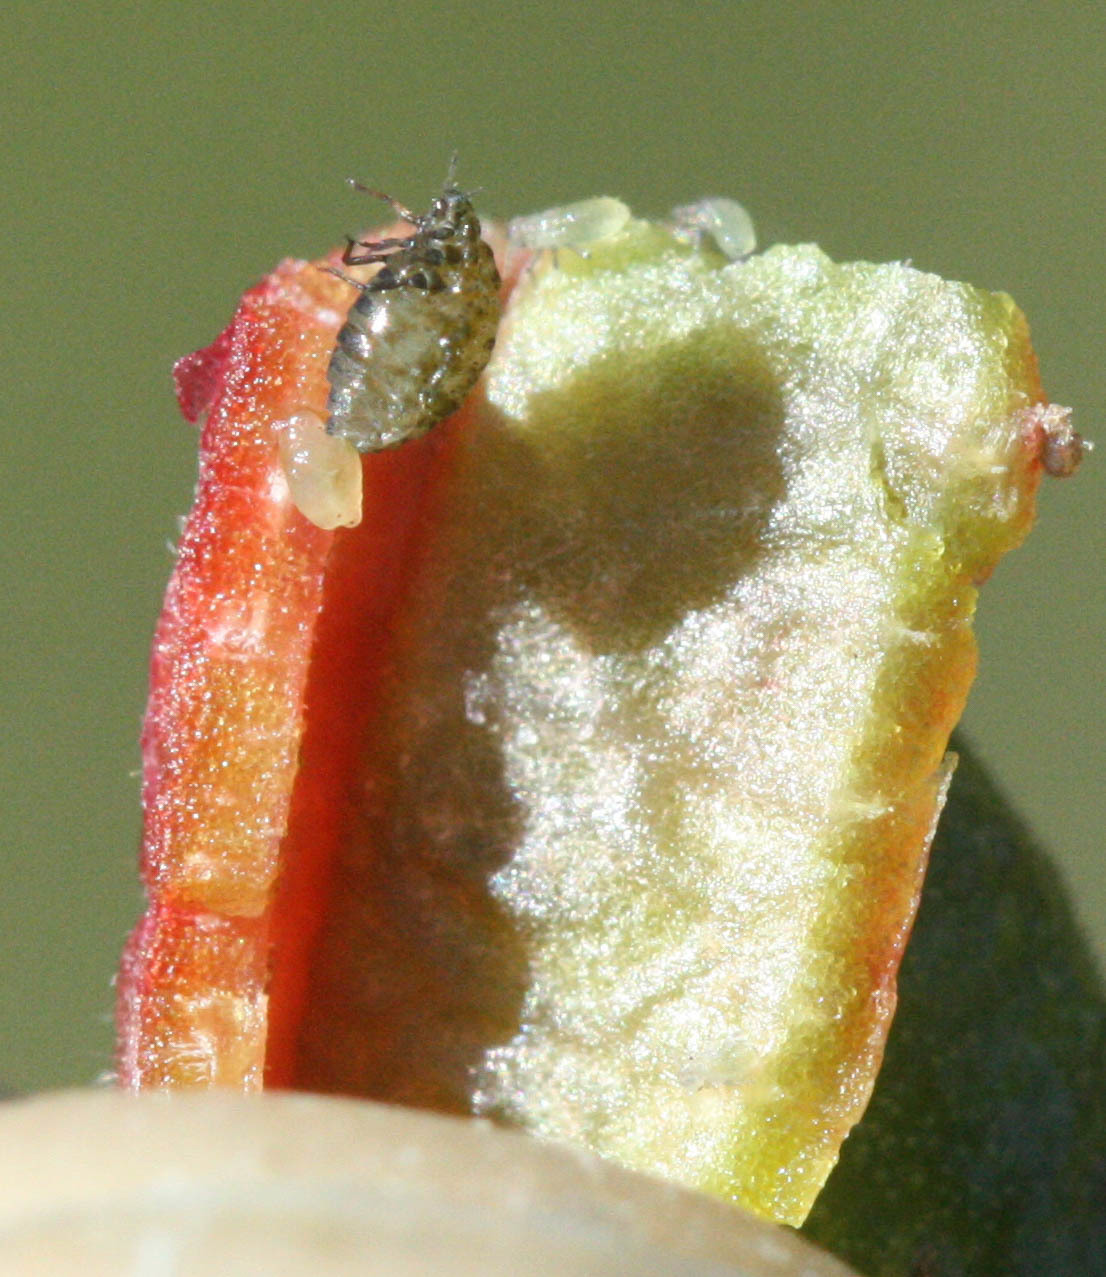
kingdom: Animalia
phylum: Arthropoda
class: Insecta
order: Hemiptera
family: Aphididae
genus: Tamalia
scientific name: Tamalia coweni
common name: Manzanita leafgall aphid
